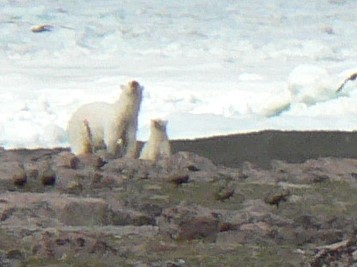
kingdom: Animalia
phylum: Chordata
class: Mammalia
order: Carnivora
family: Ursidae
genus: Ursus
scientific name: Ursus maritimus
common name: Polar bear
